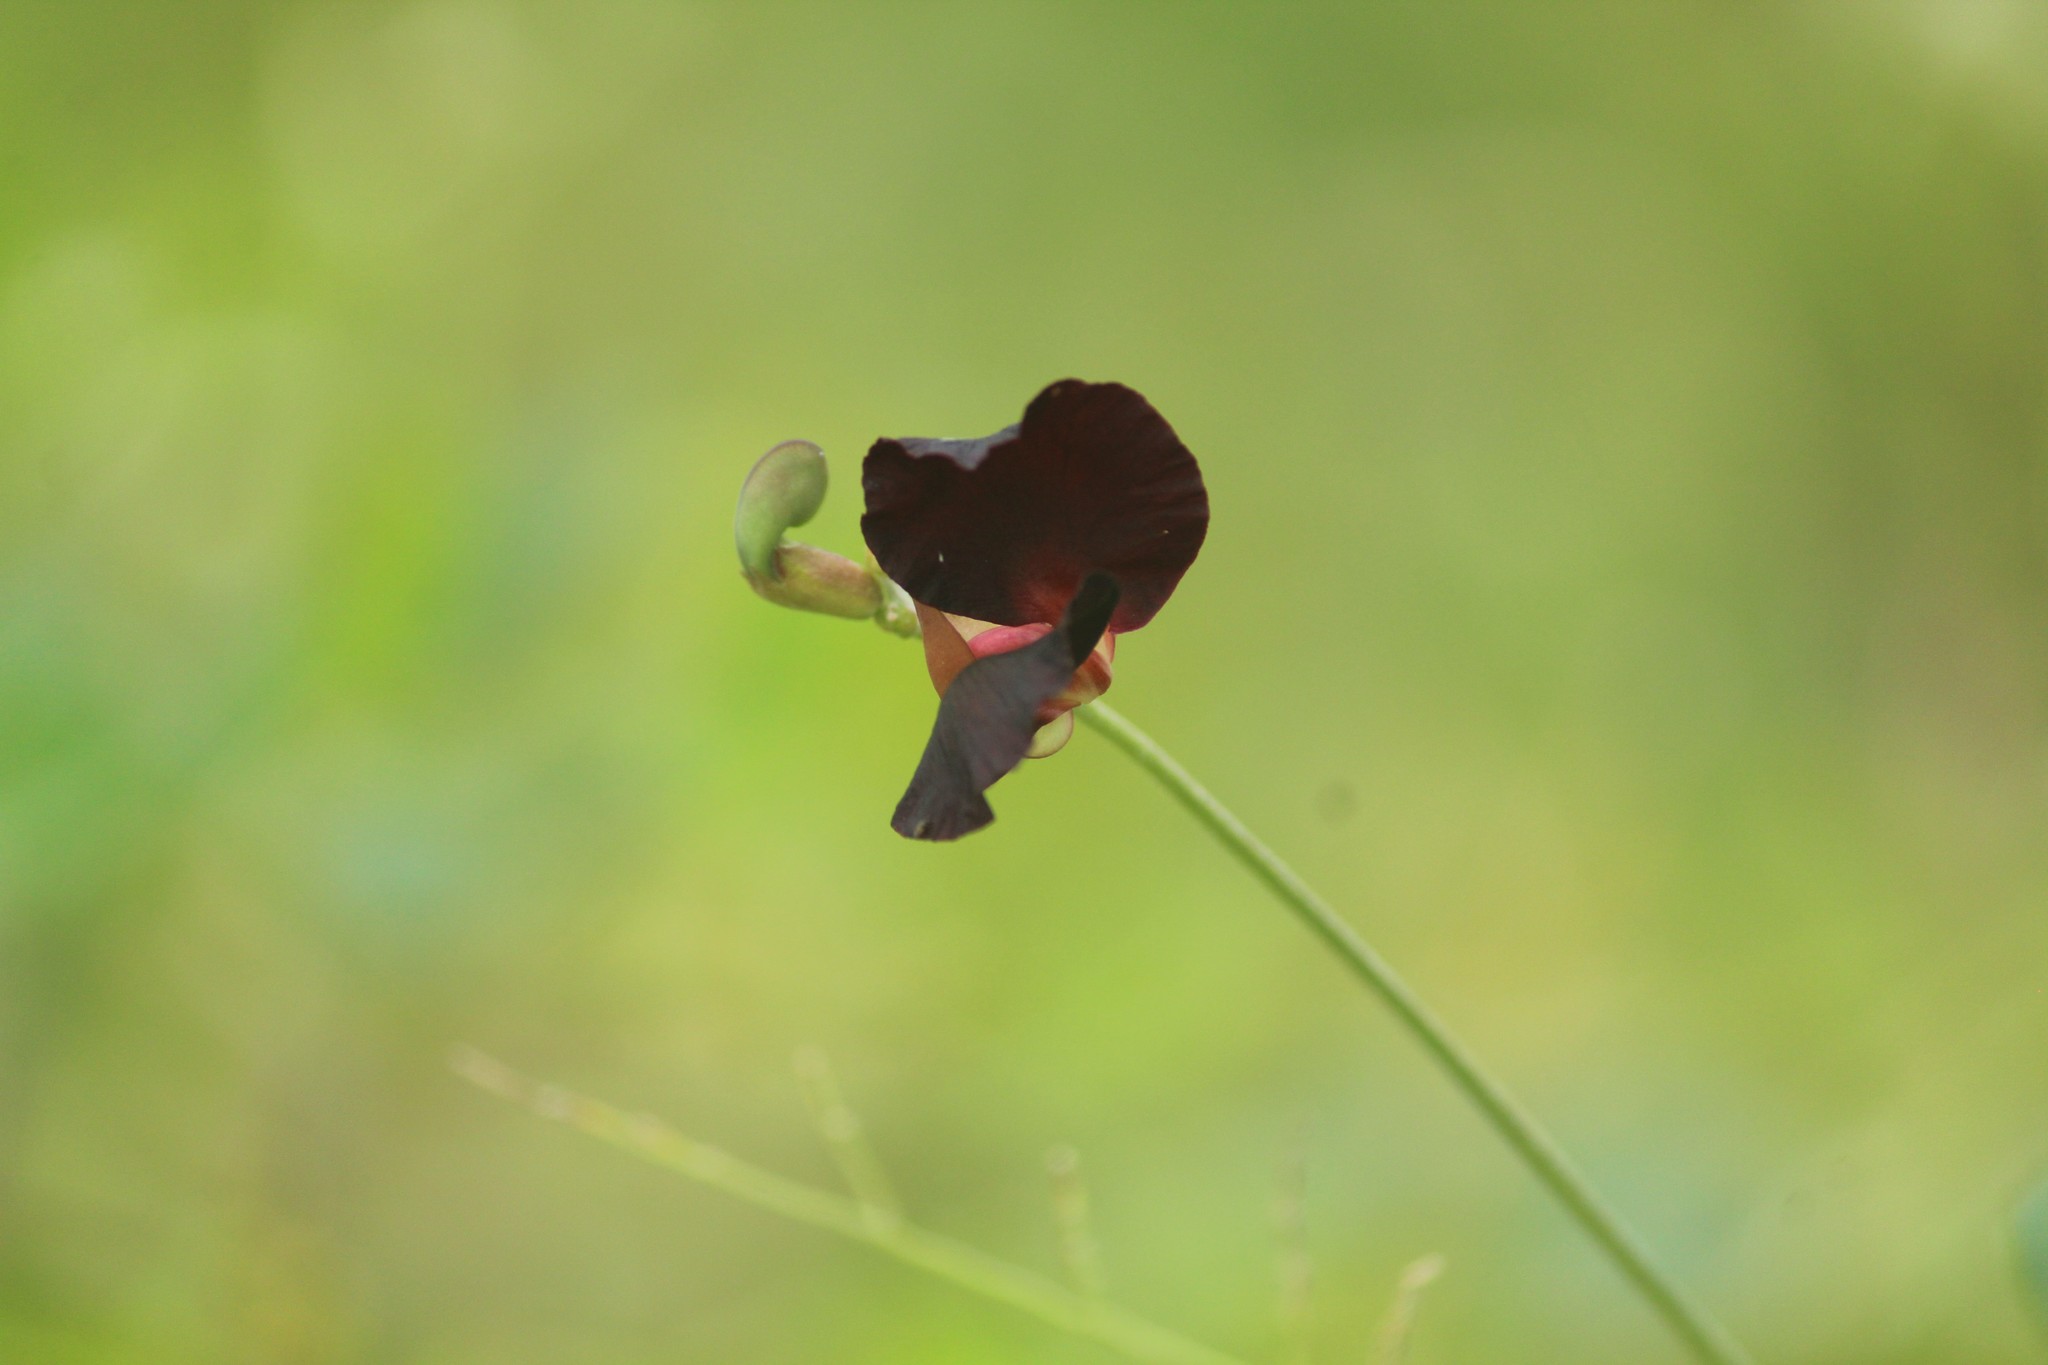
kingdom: Plantae
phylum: Tracheophyta
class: Magnoliopsida
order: Fabales
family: Fabaceae
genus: Macroptilium
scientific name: Macroptilium atropurpureum
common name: Purple bushbean
